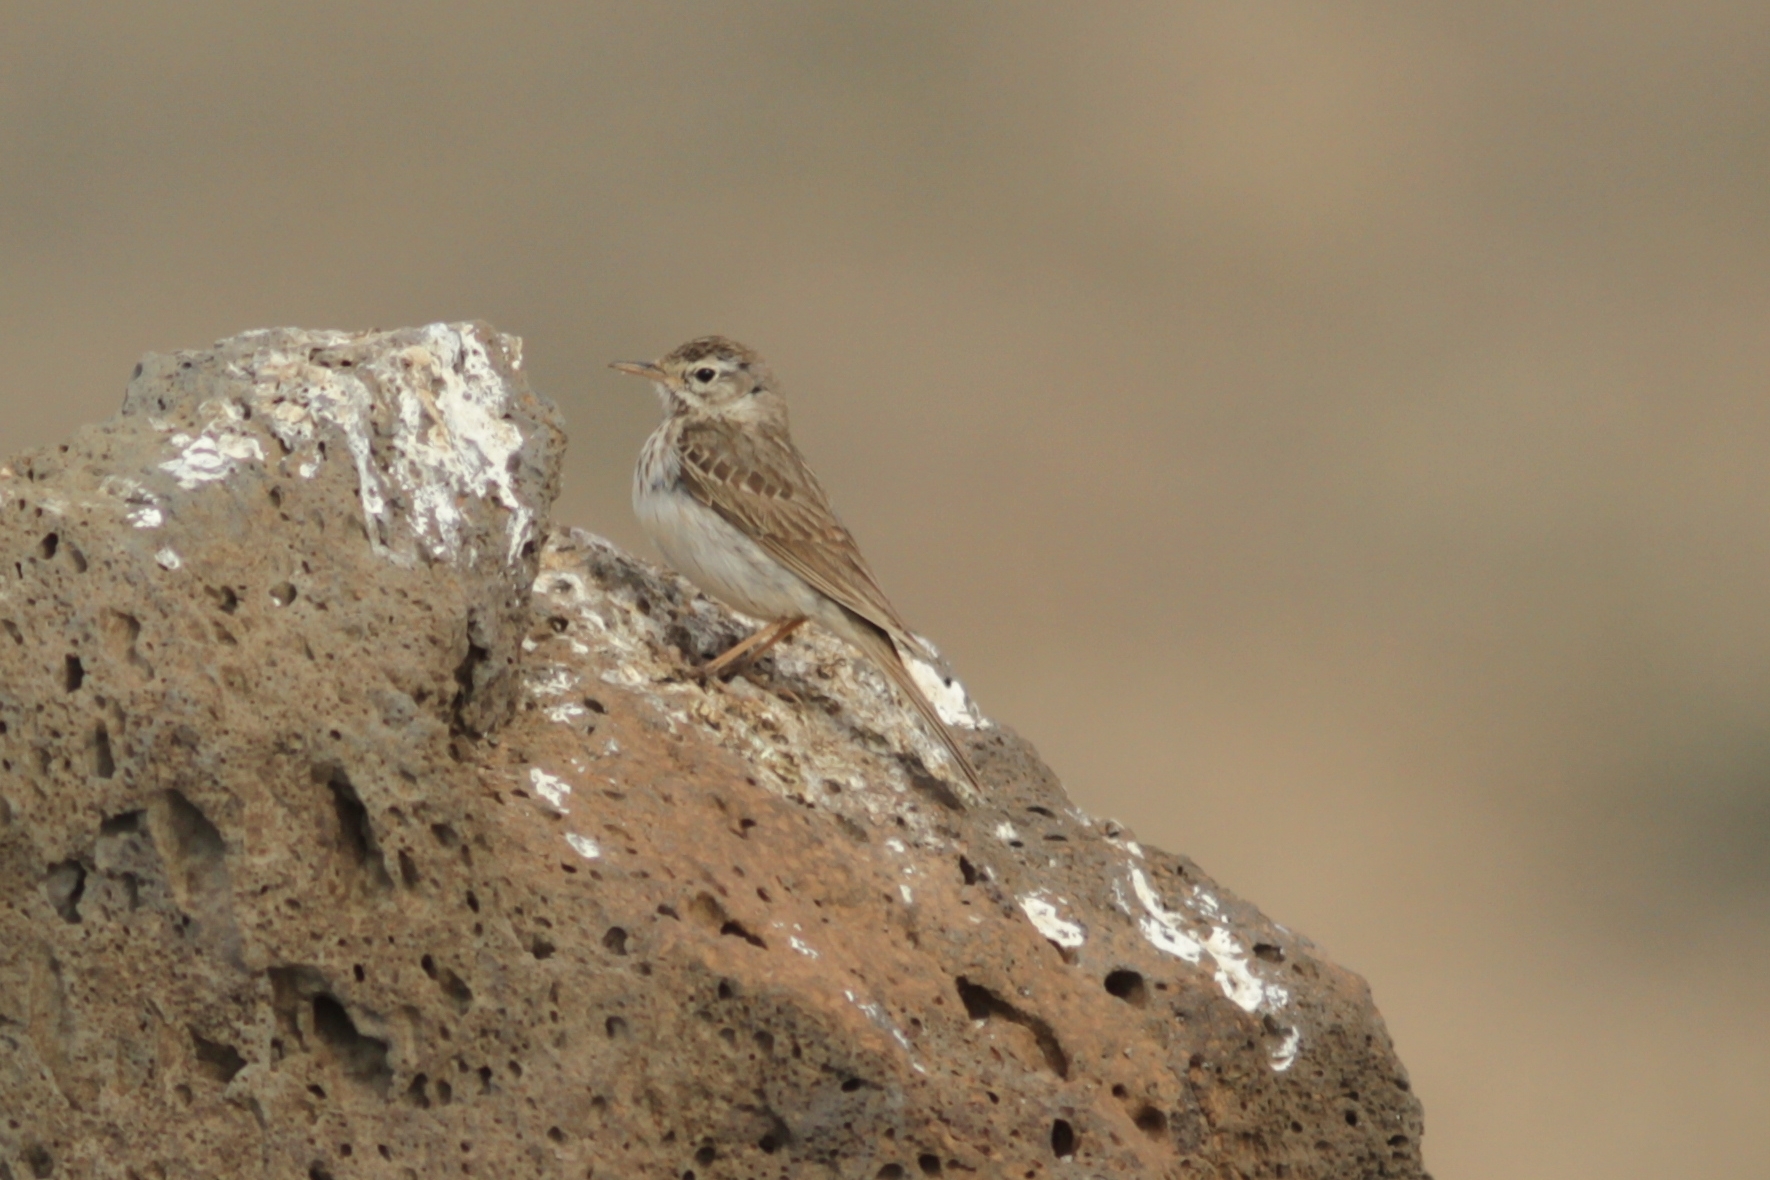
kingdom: Animalia
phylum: Chordata
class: Aves
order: Passeriformes
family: Motacillidae
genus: Anthus
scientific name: Anthus berthelotii
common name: Berthelot's pipit
